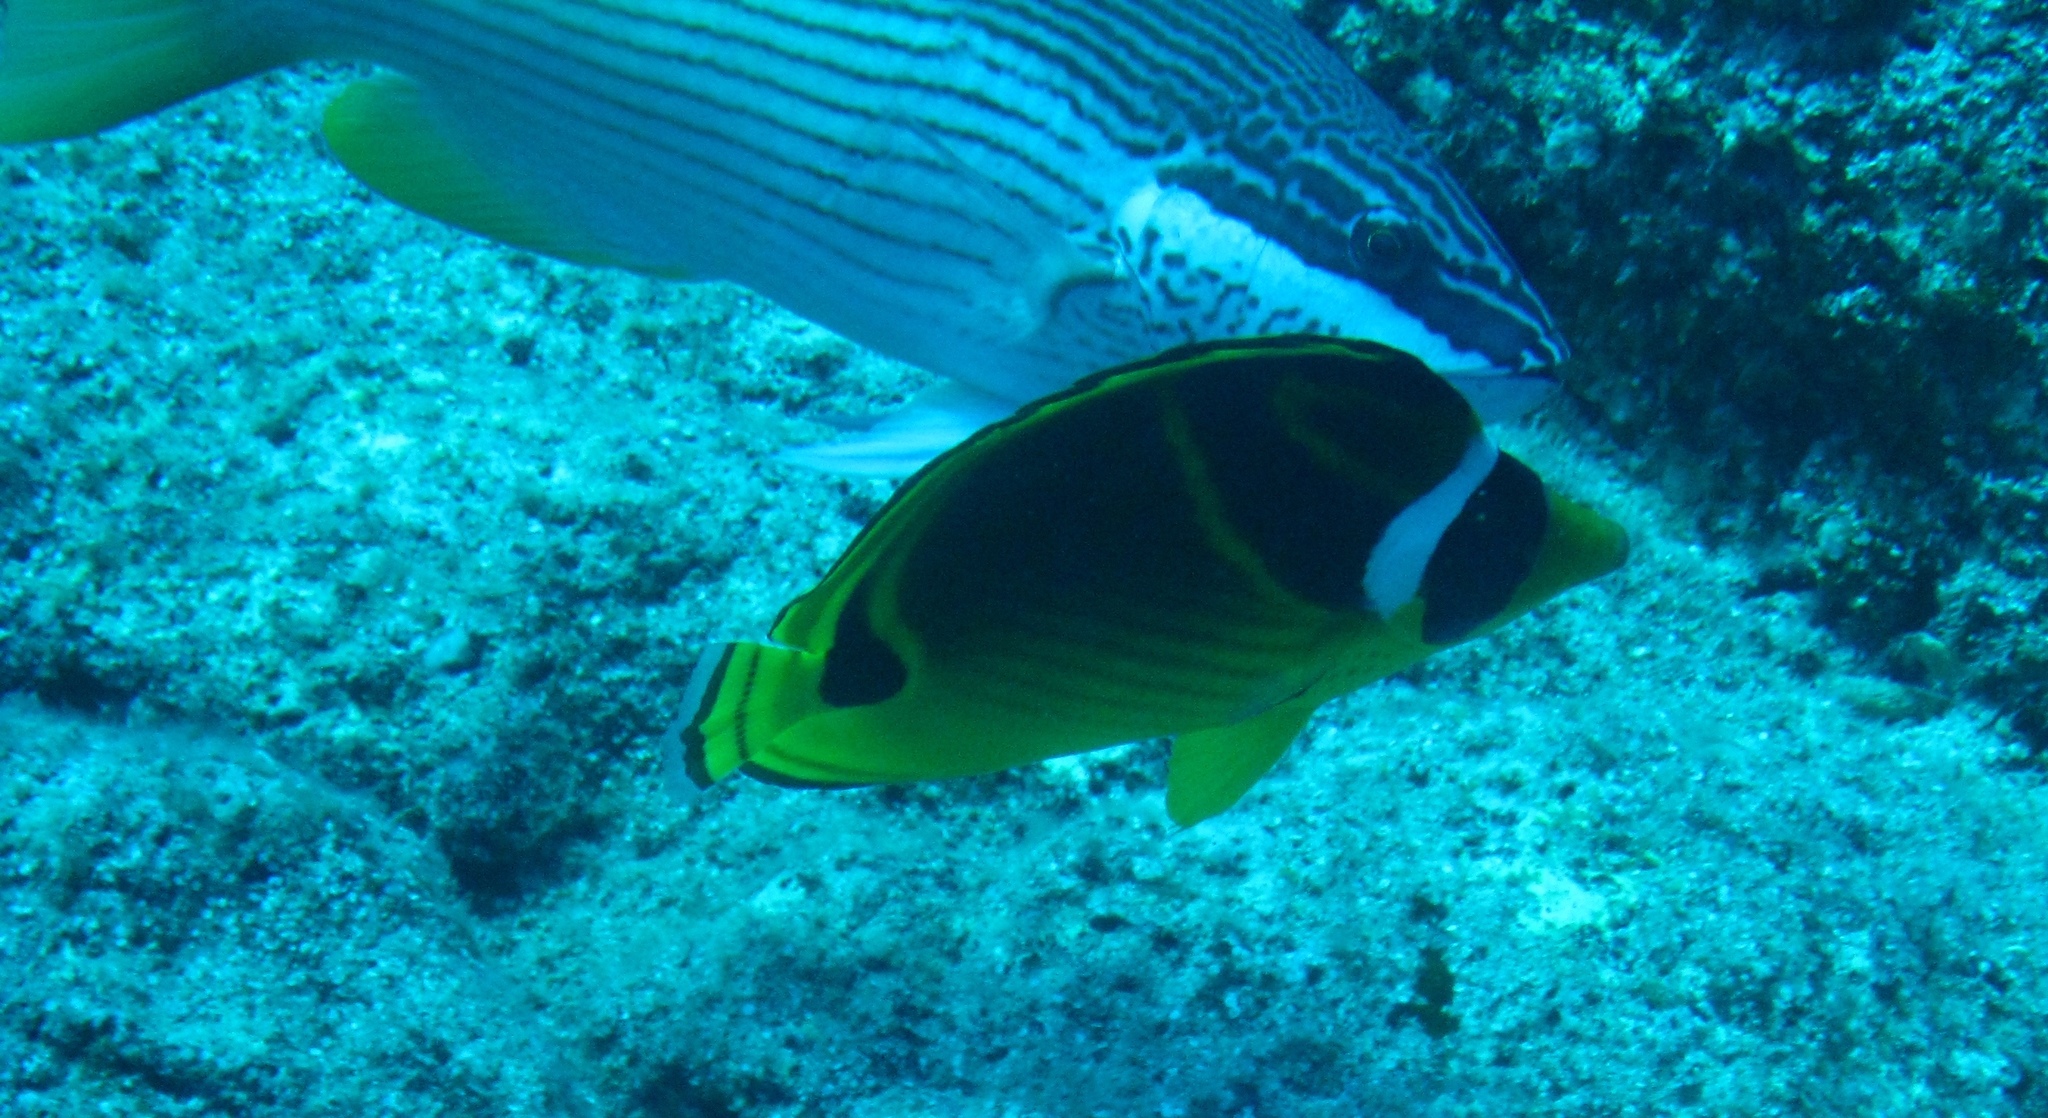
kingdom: Animalia
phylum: Chordata
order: Perciformes
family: Chaetodontidae
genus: Chaetodon
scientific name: Chaetodon lunula
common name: Raccoon butterflyfish
